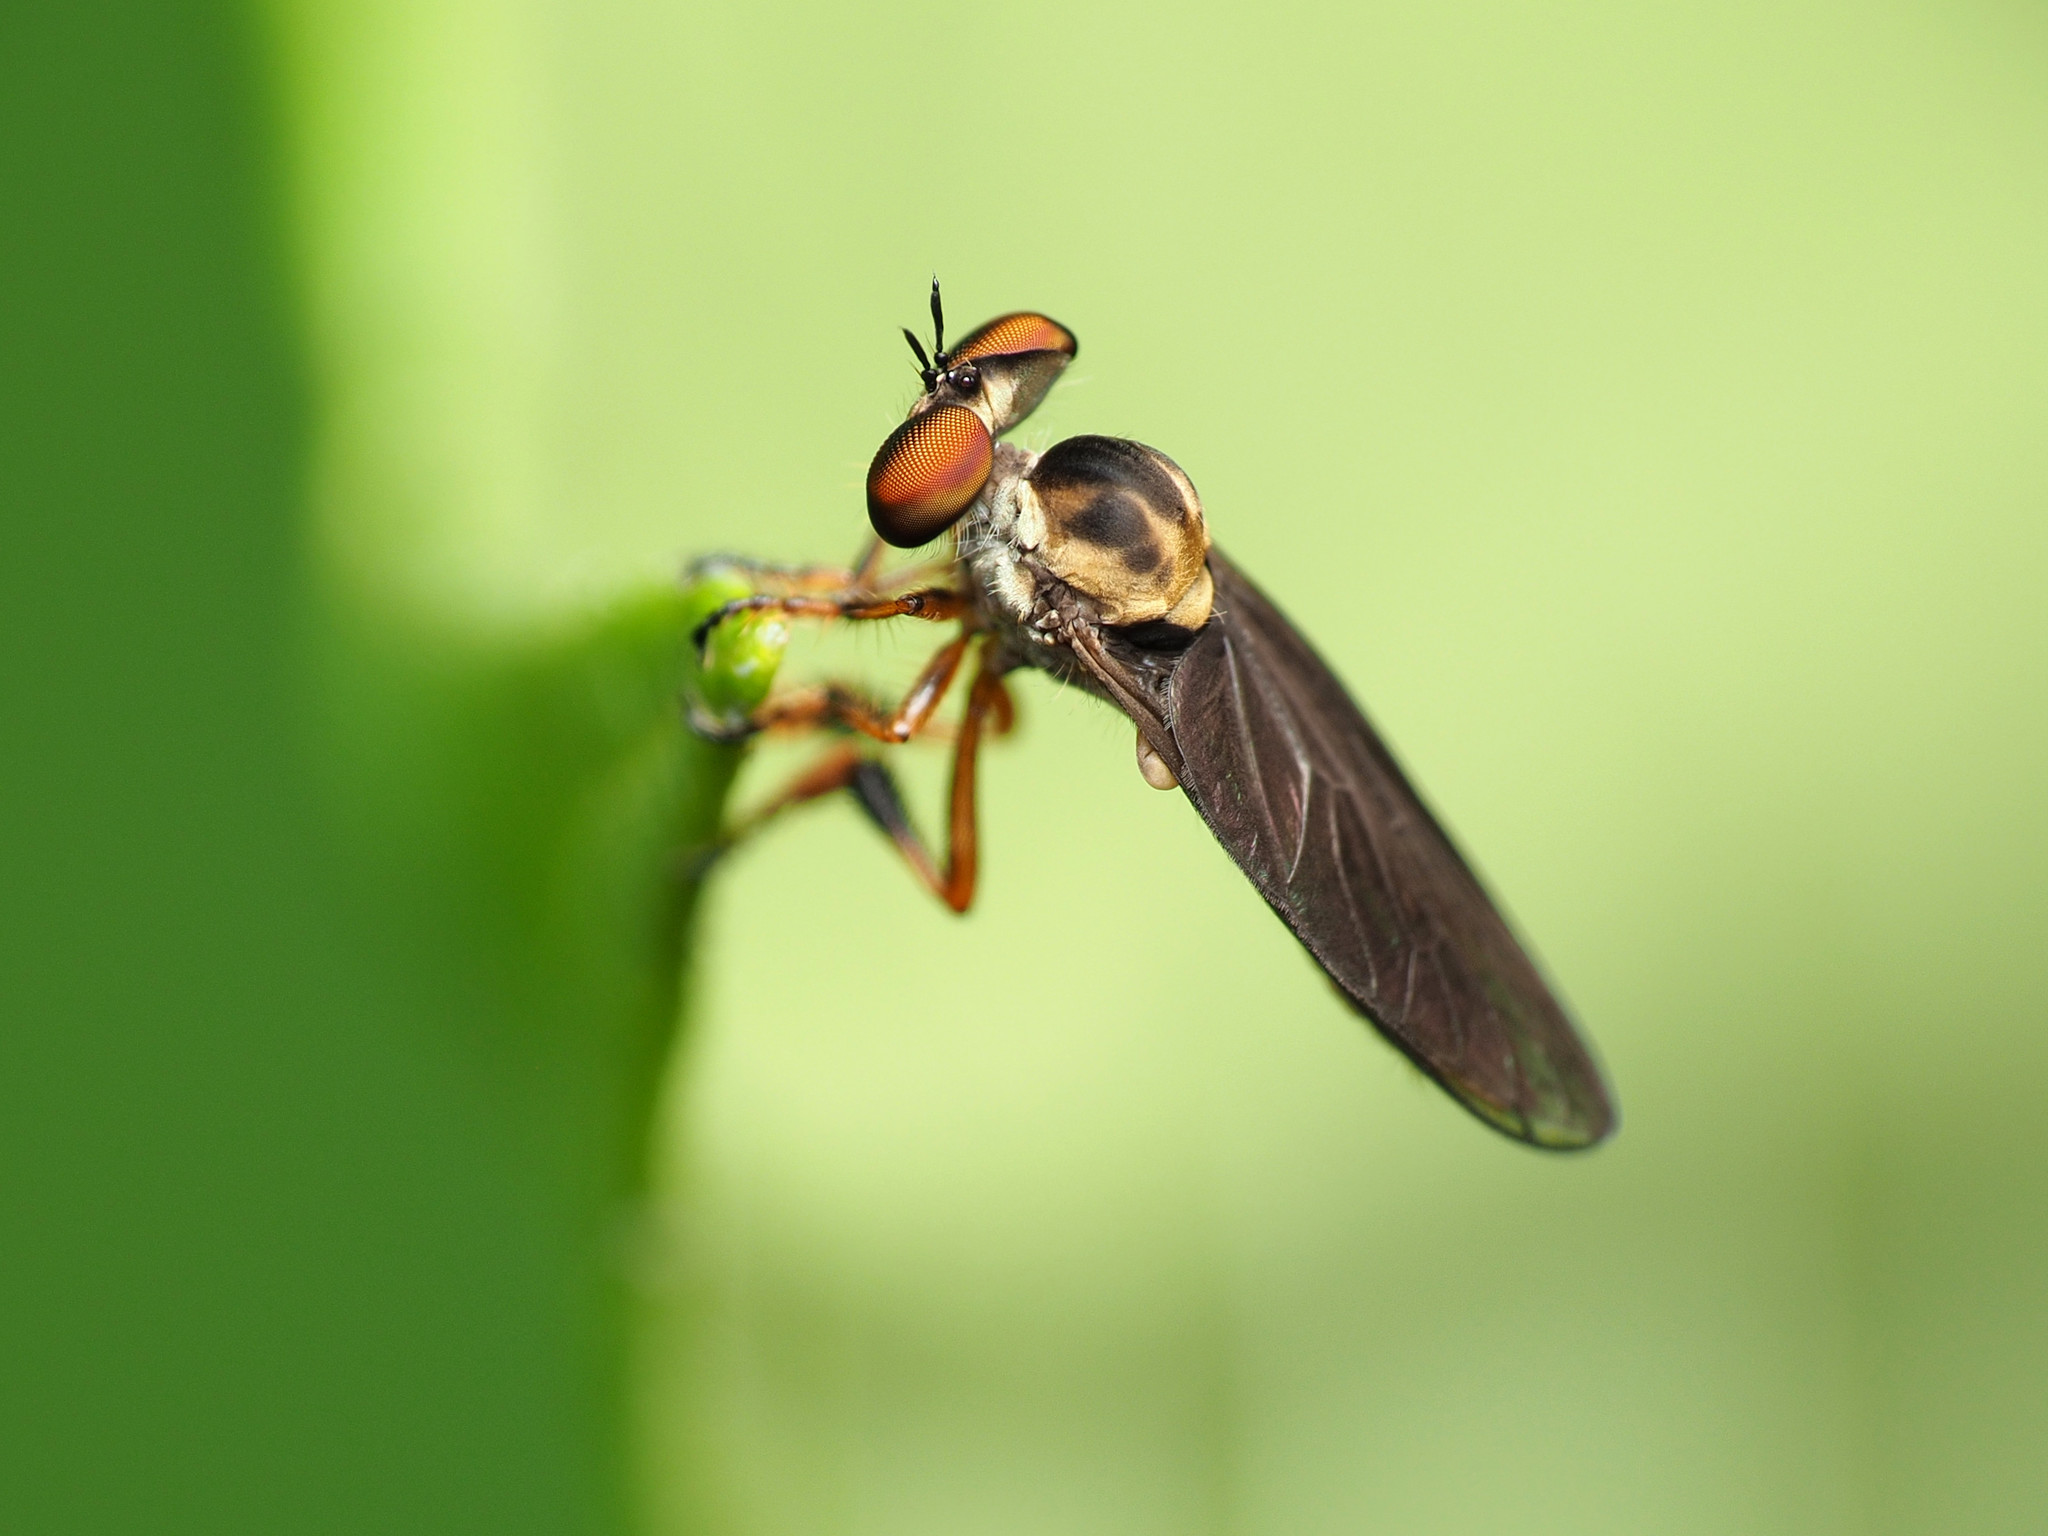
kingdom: Animalia
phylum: Arthropoda
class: Insecta
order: Diptera
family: Asilidae
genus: Holcocephala
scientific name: Holcocephala
